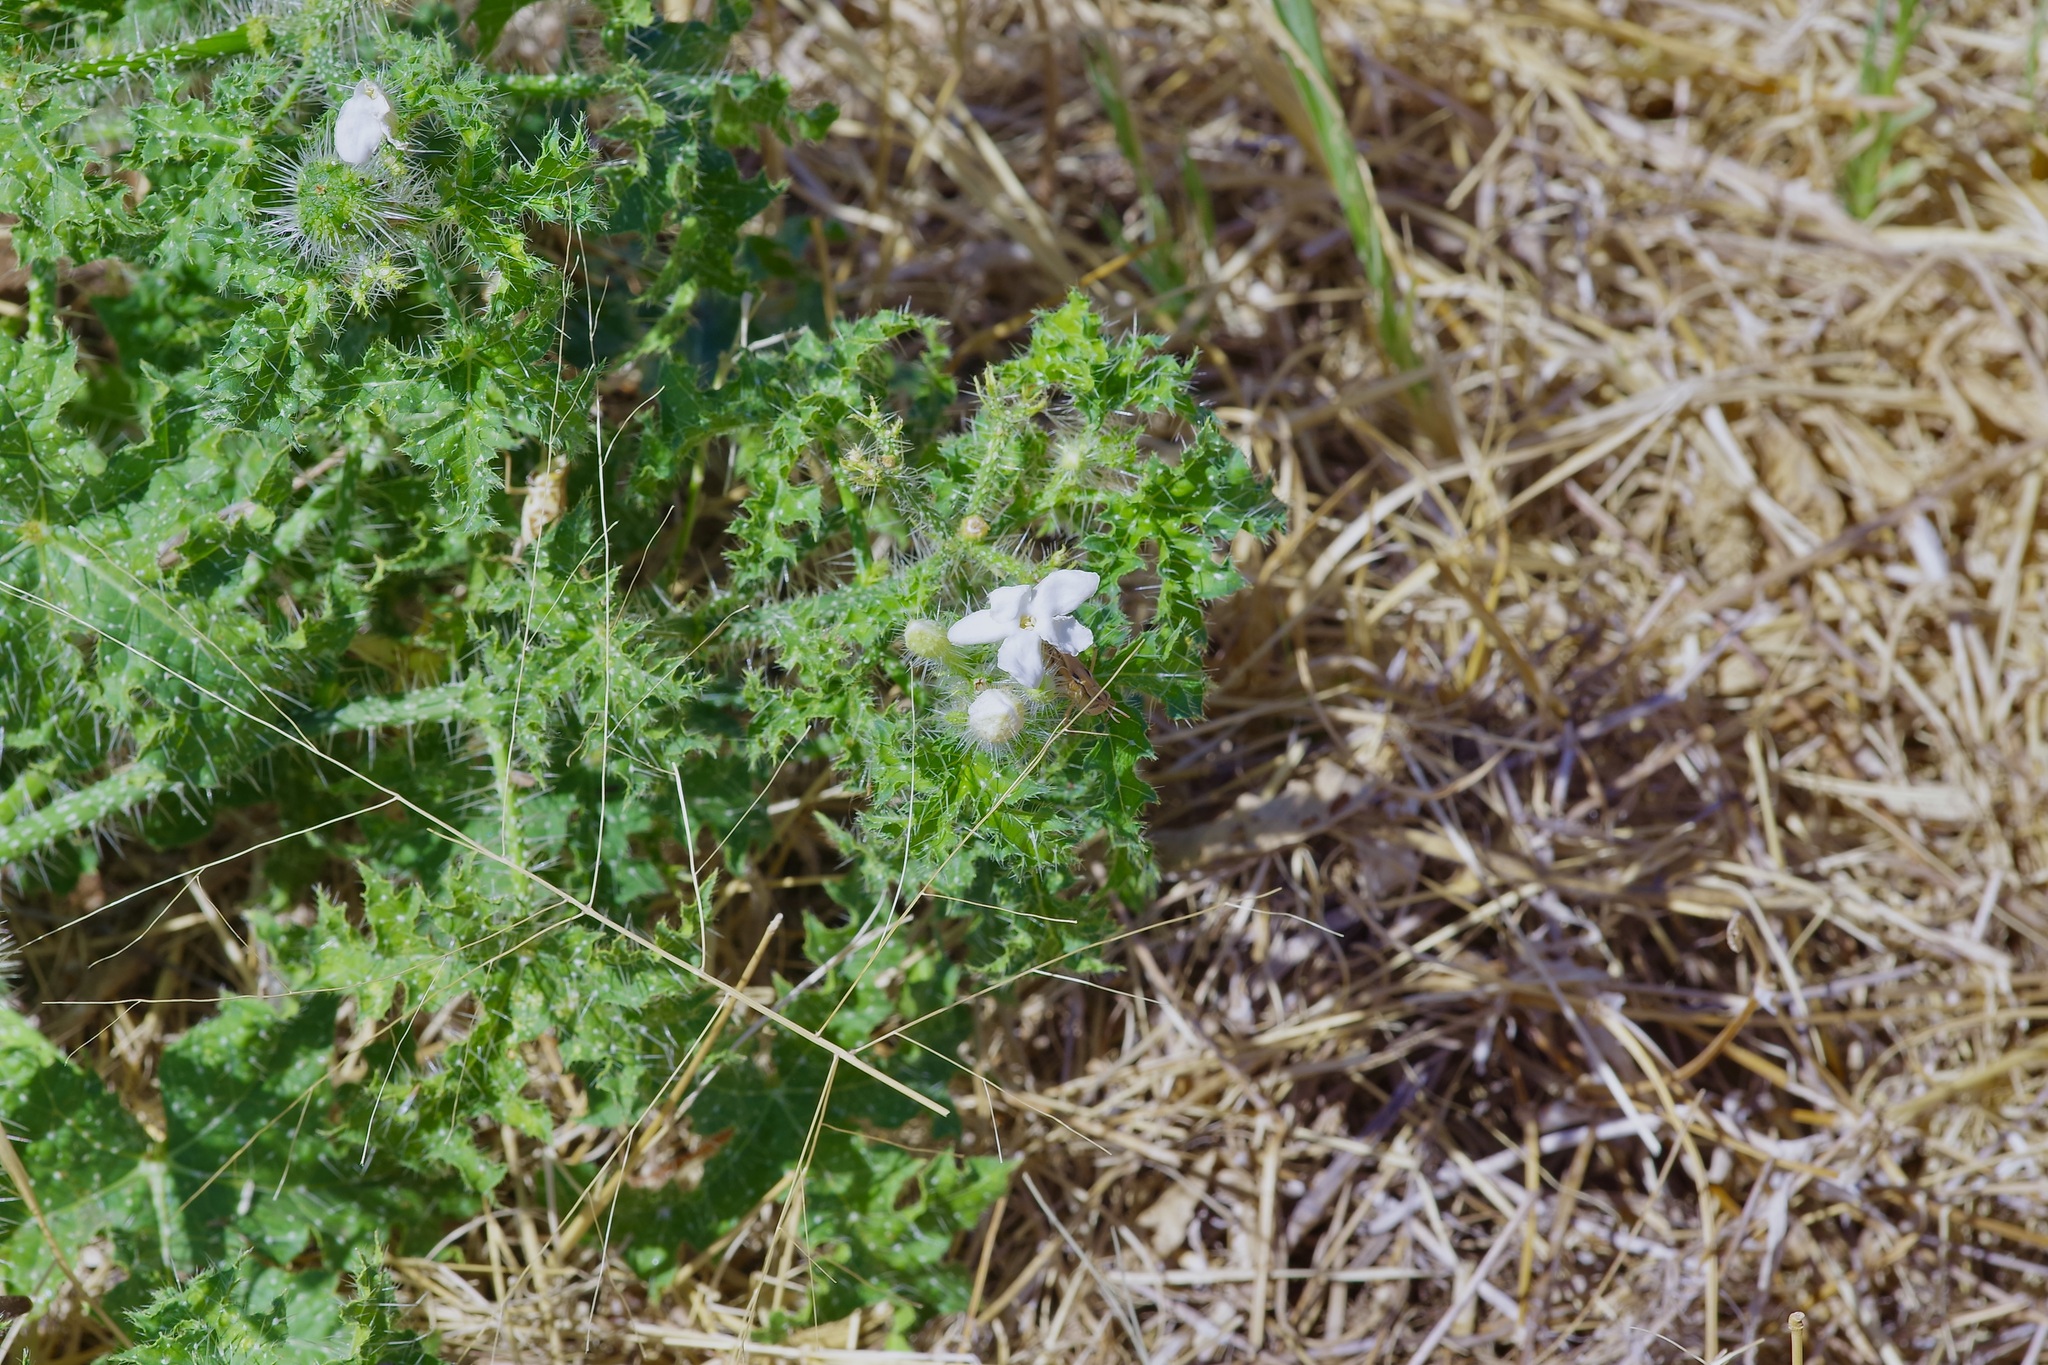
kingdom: Plantae
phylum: Tracheophyta
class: Magnoliopsida
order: Malpighiales
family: Euphorbiaceae
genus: Cnidoscolus
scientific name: Cnidoscolus texanus
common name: Texas bull-nettle
